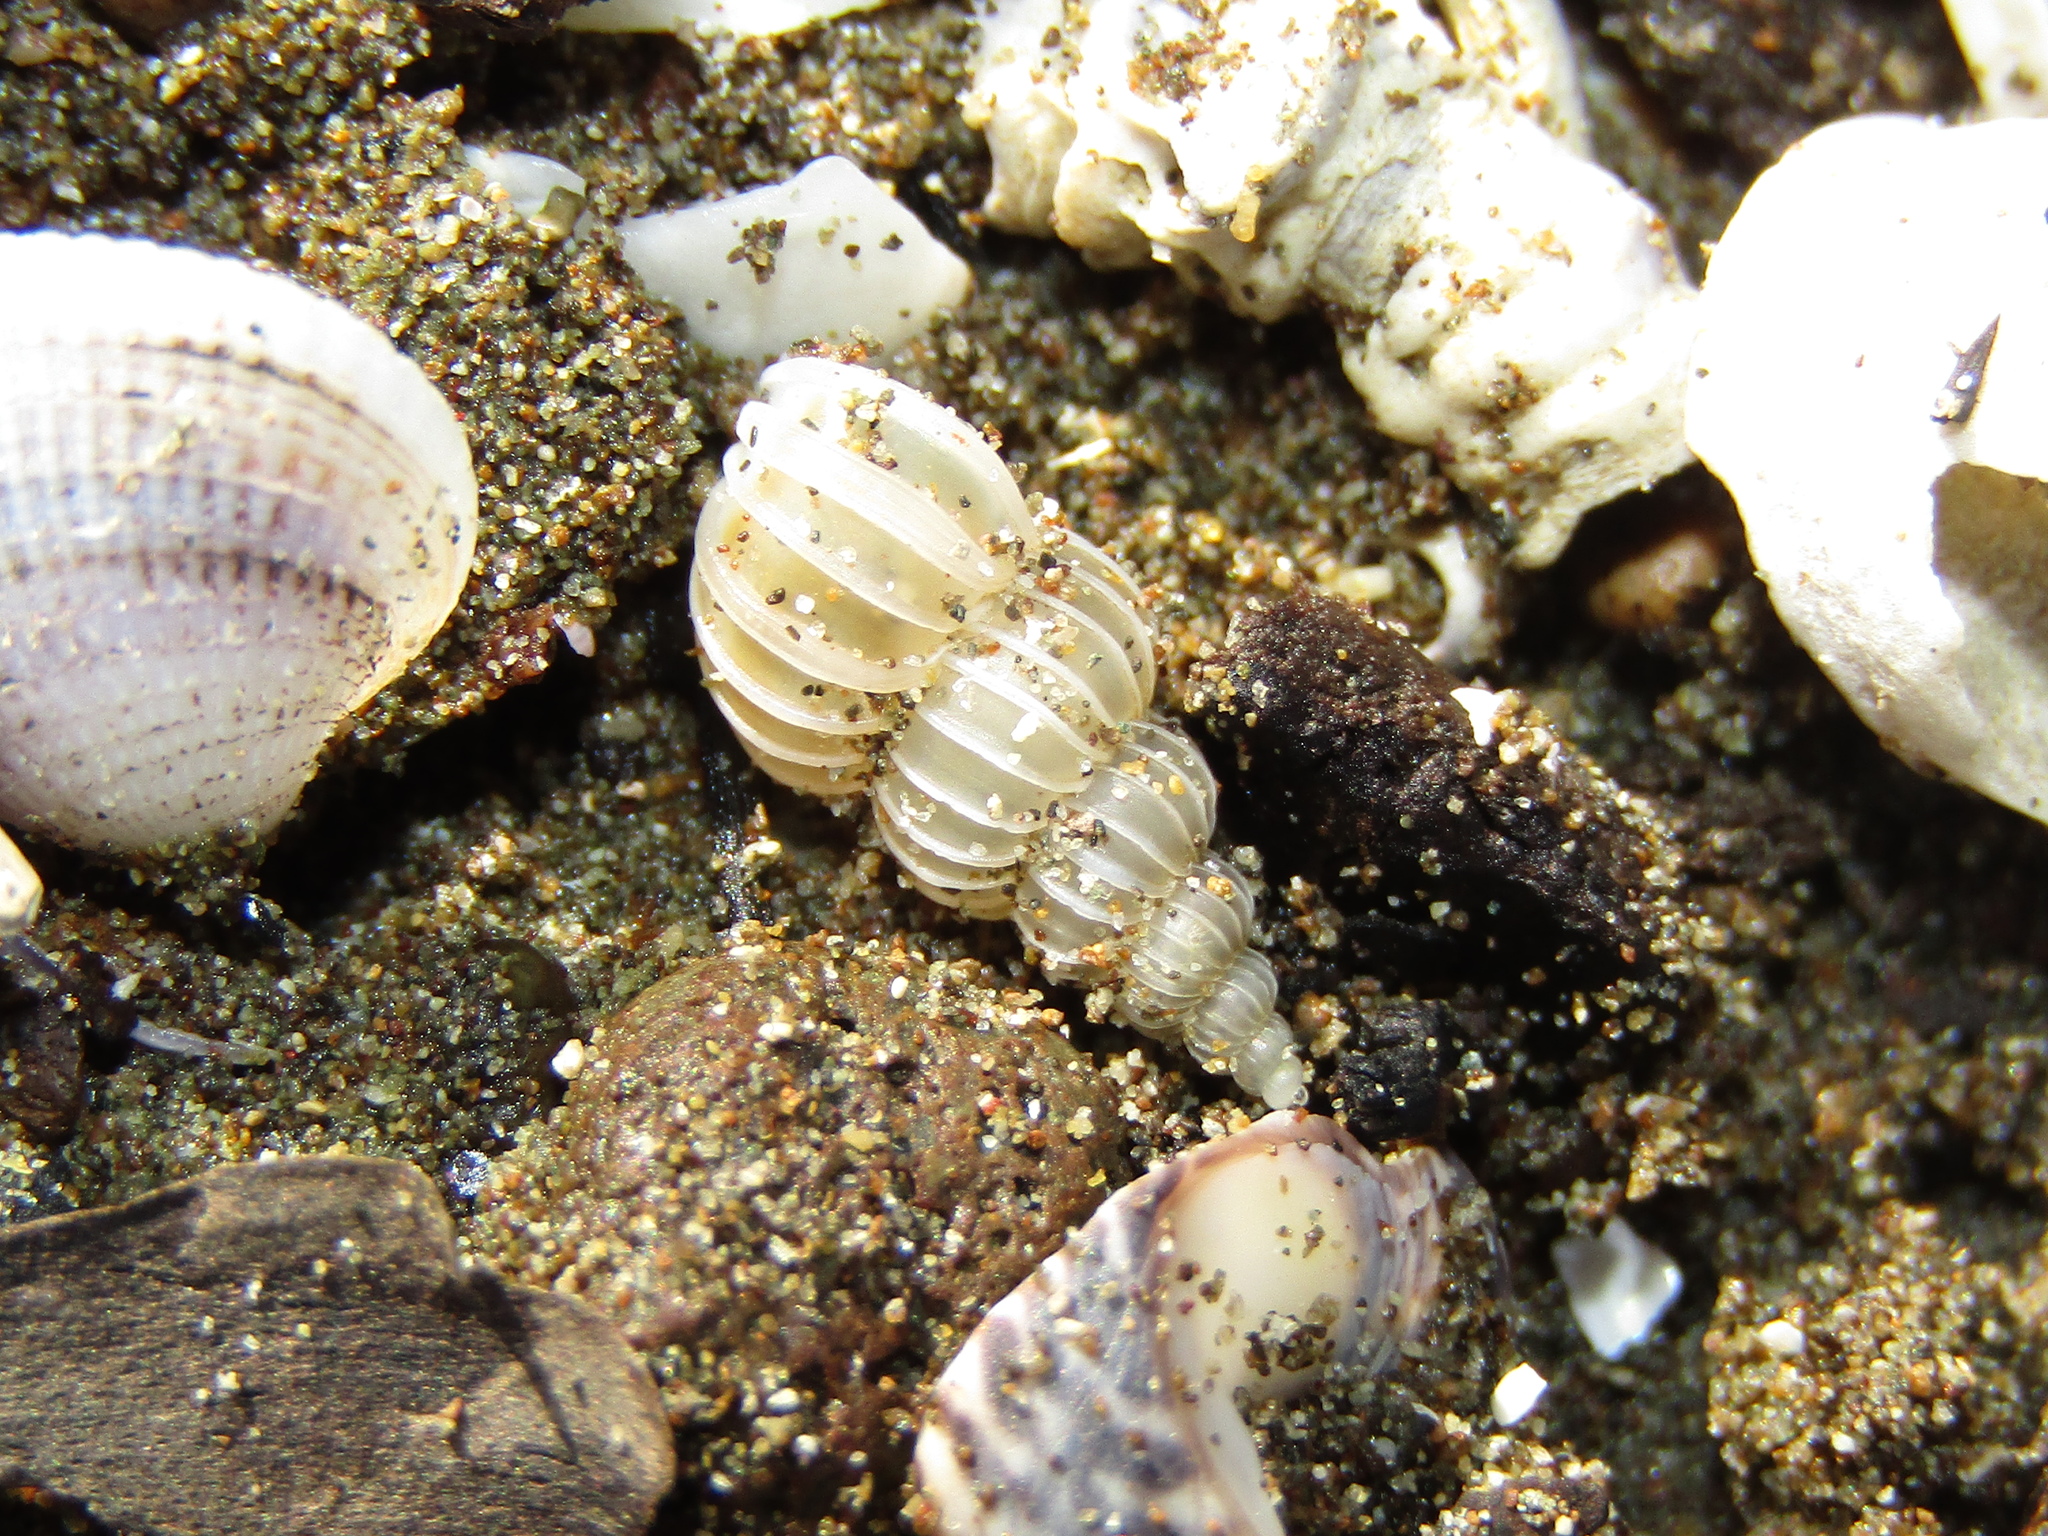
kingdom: Animalia
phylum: Mollusca
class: Gastropoda
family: Epitoniidae
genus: Epitonium
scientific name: Epitonium tenellum
